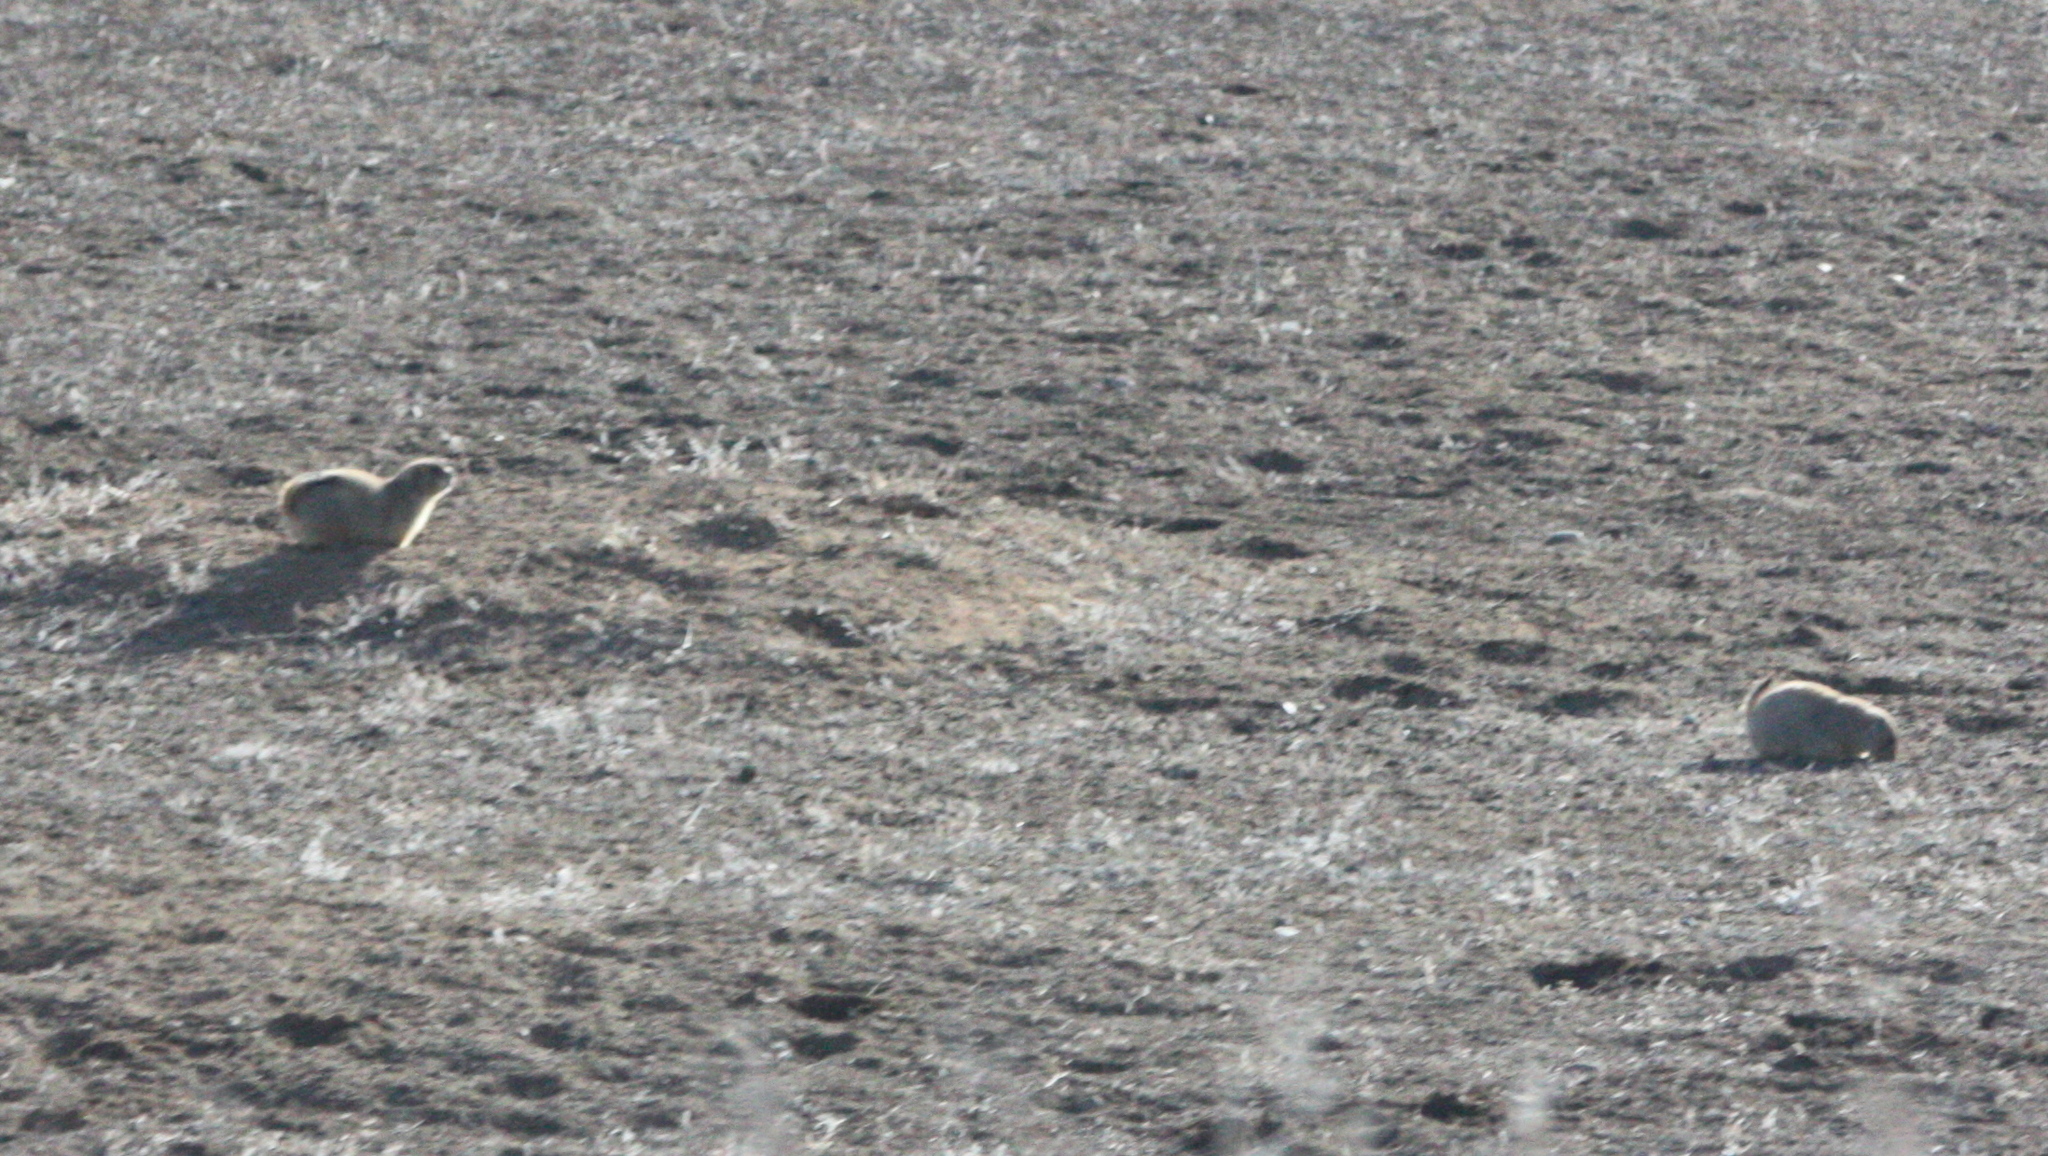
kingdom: Animalia
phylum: Chordata
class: Mammalia
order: Rodentia
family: Sciuridae
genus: Cynomys
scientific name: Cynomys ludovicianus
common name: Black-tailed prairie dog
